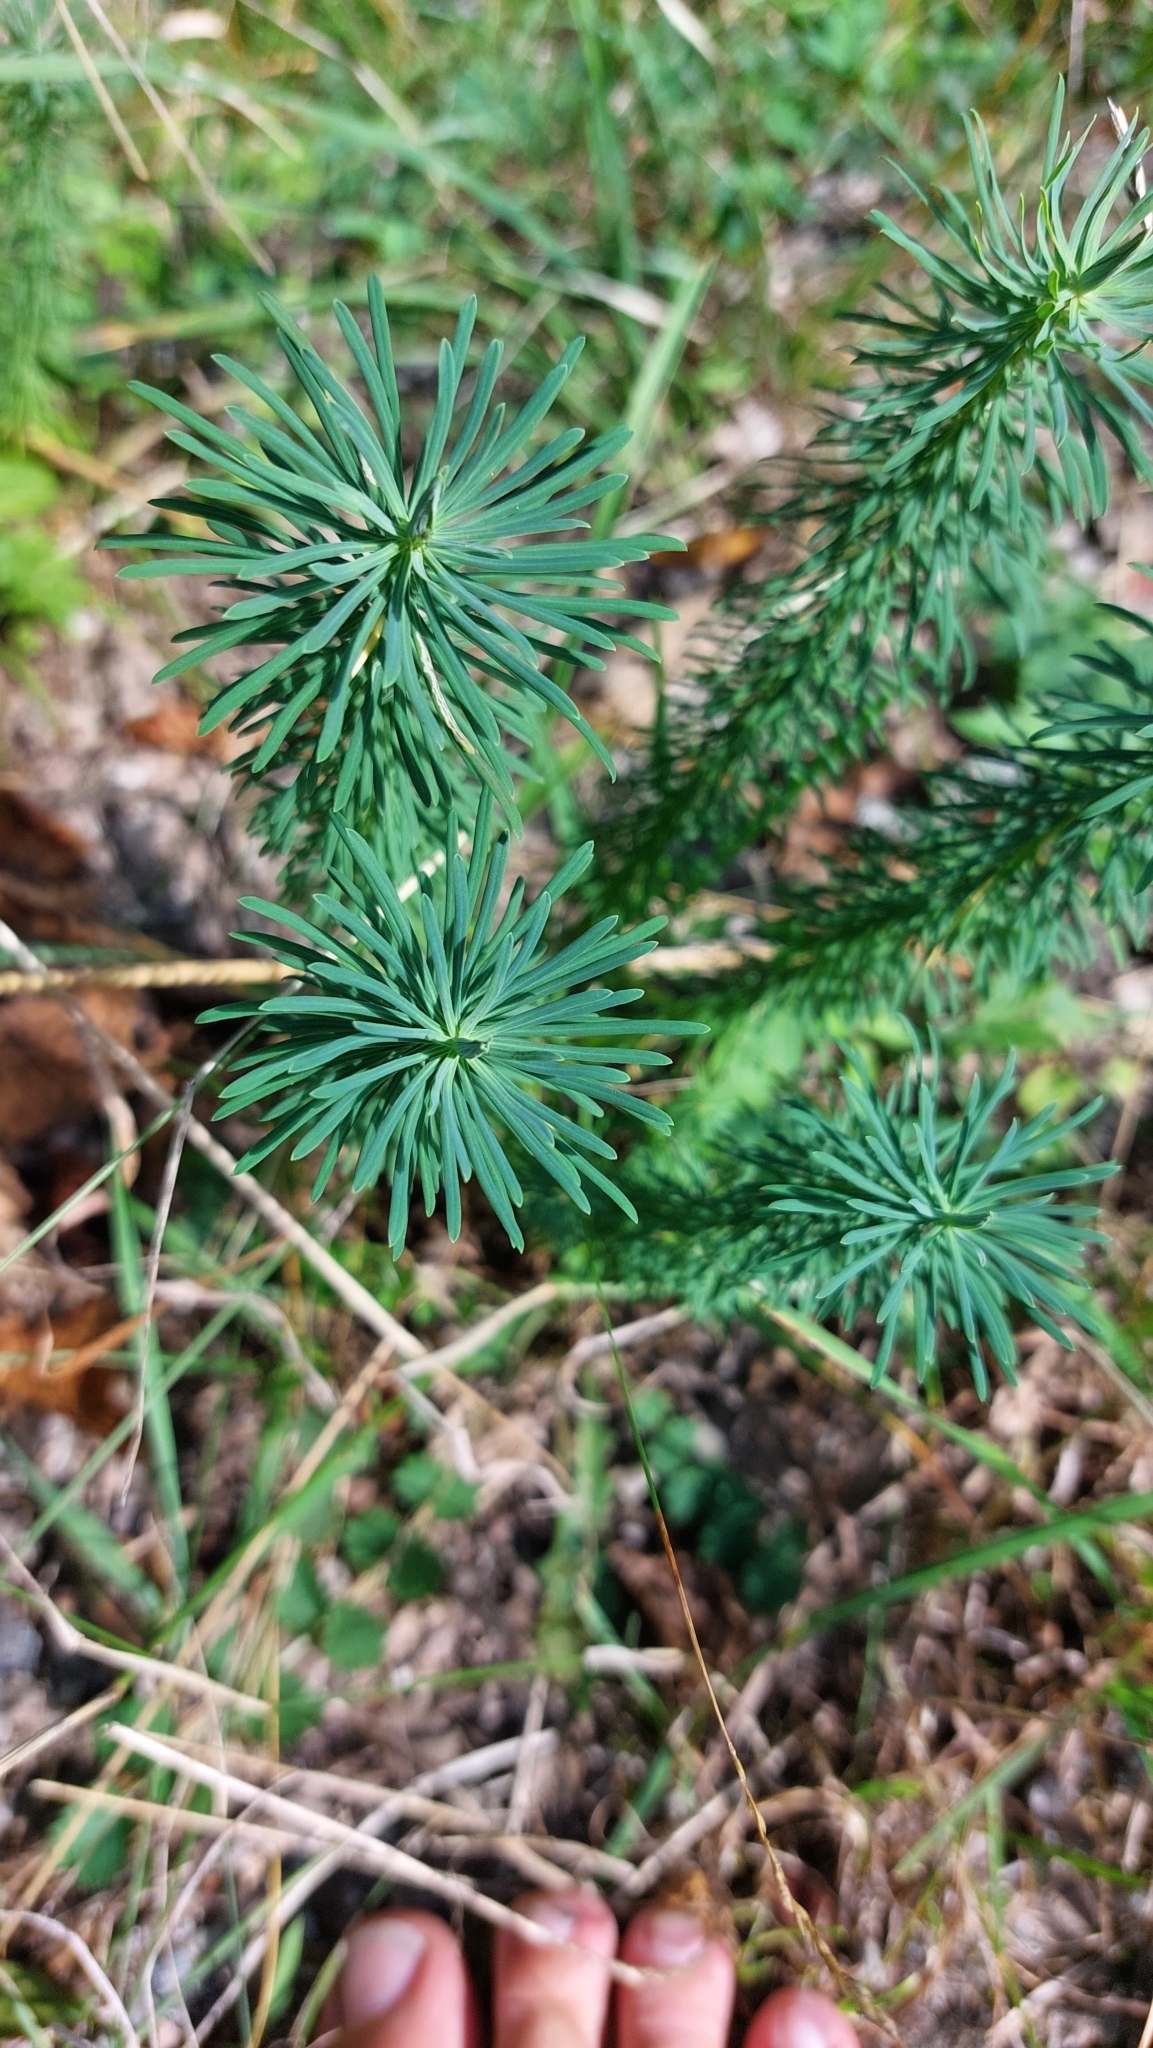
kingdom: Plantae
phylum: Tracheophyta
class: Magnoliopsida
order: Malpighiales
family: Euphorbiaceae
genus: Euphorbia
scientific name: Euphorbia cyparissias
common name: Cypress spurge
